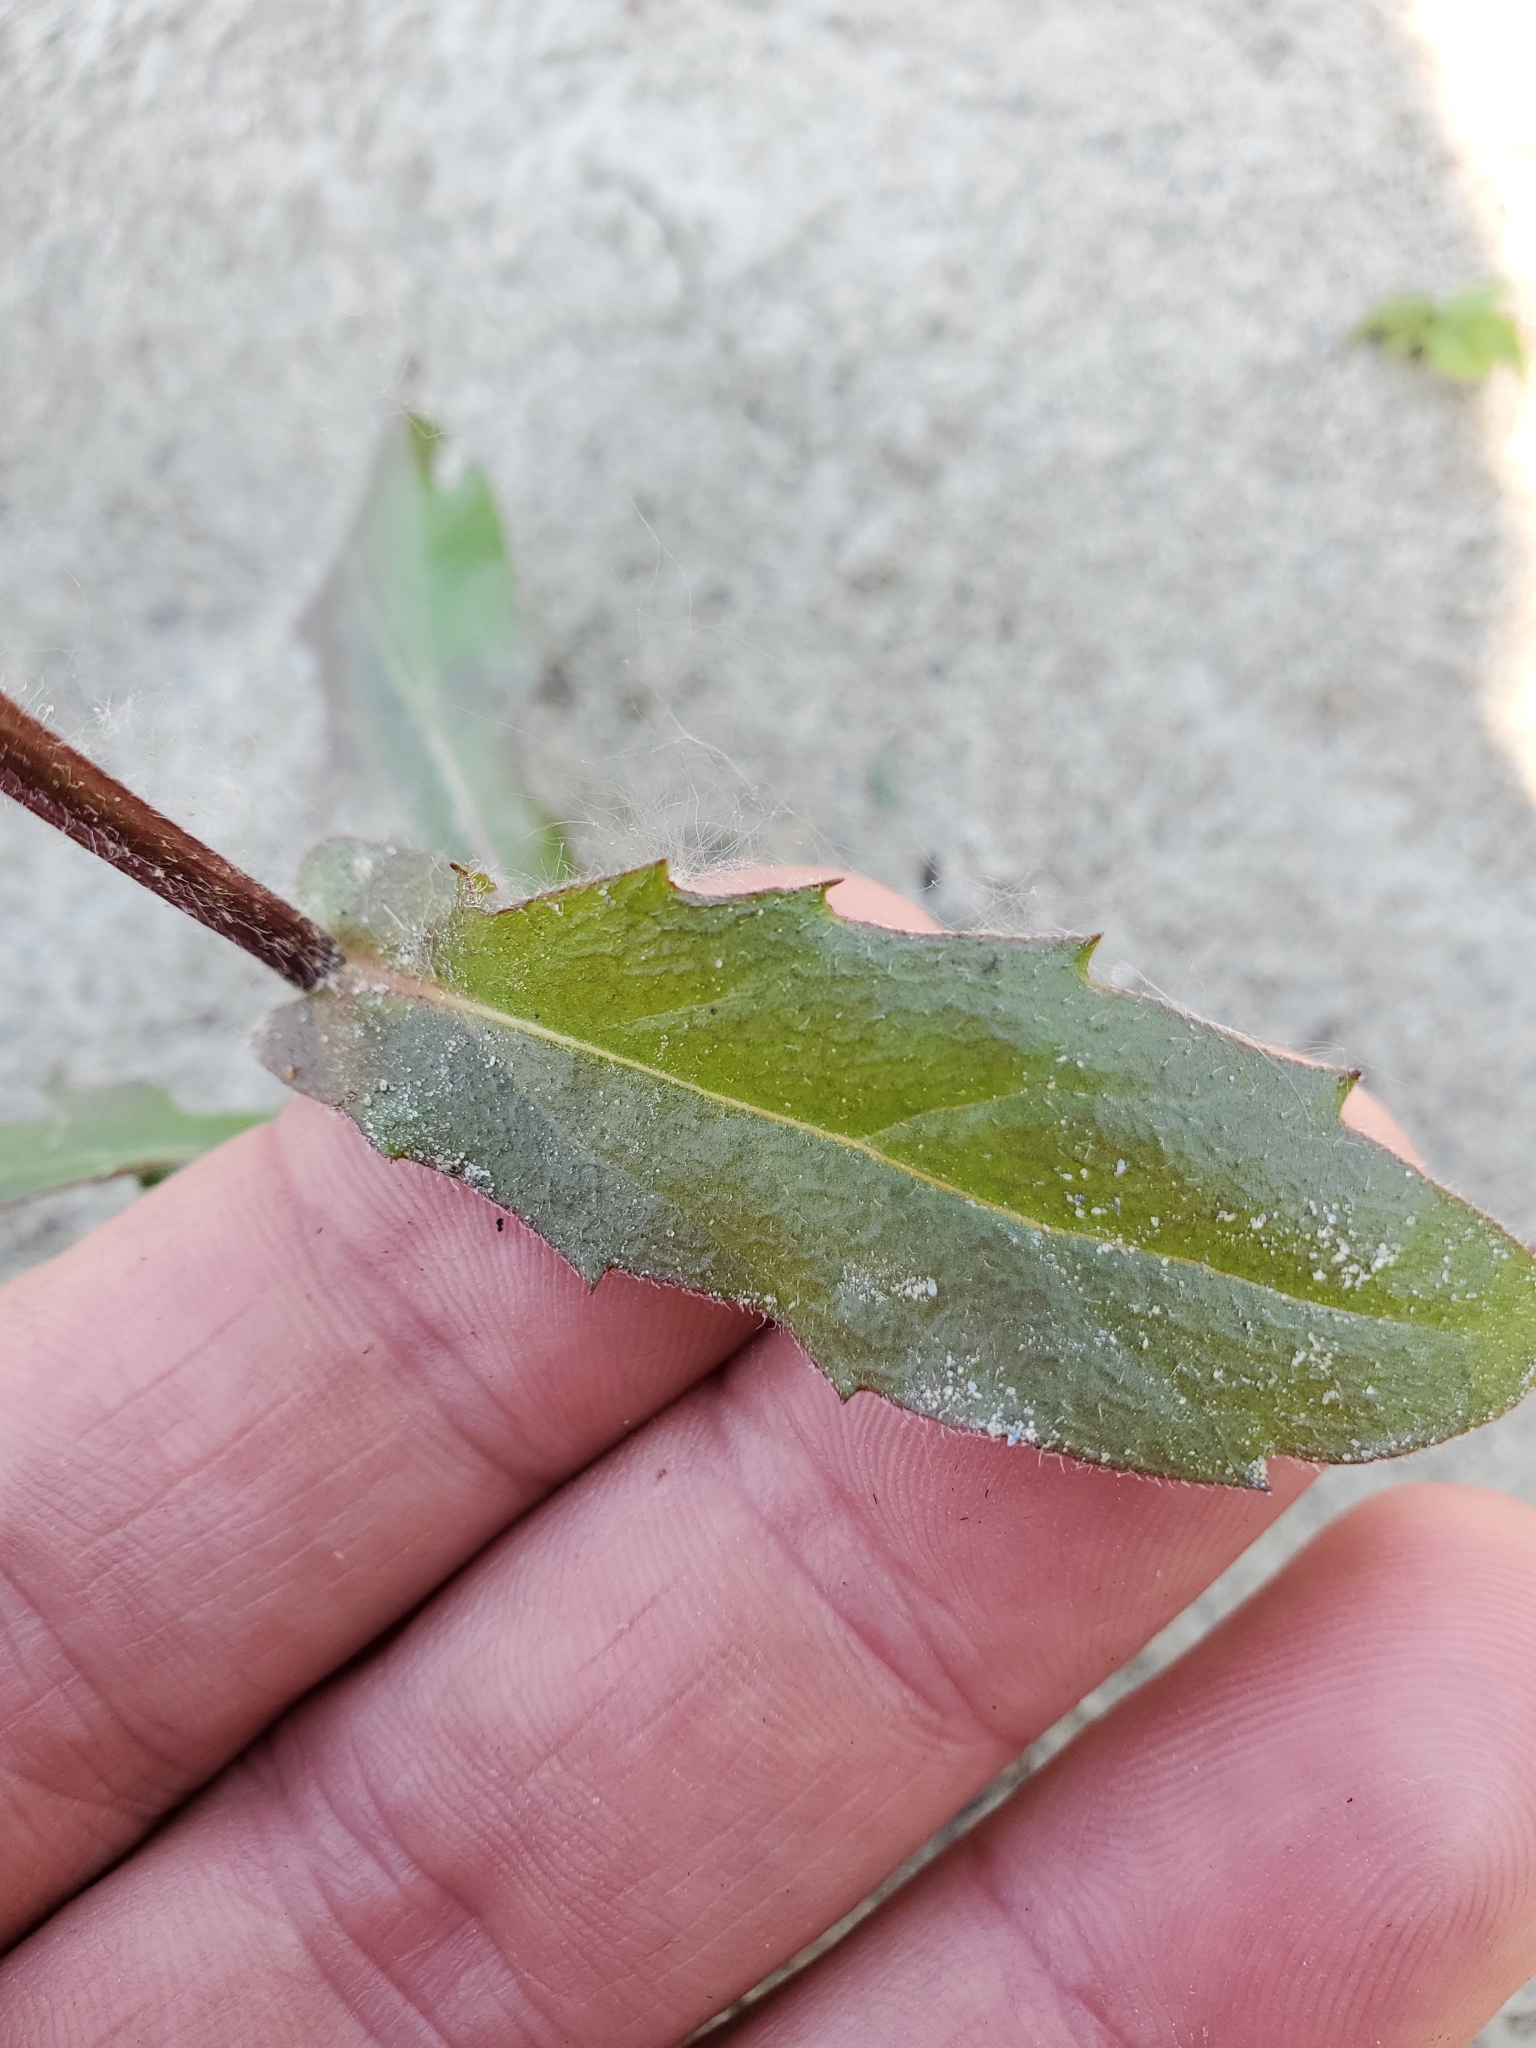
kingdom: Plantae
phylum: Tracheophyta
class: Magnoliopsida
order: Asterales
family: Asteraceae
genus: Erigeron
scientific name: Erigeron philadelphicus
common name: Robin's-plantain
